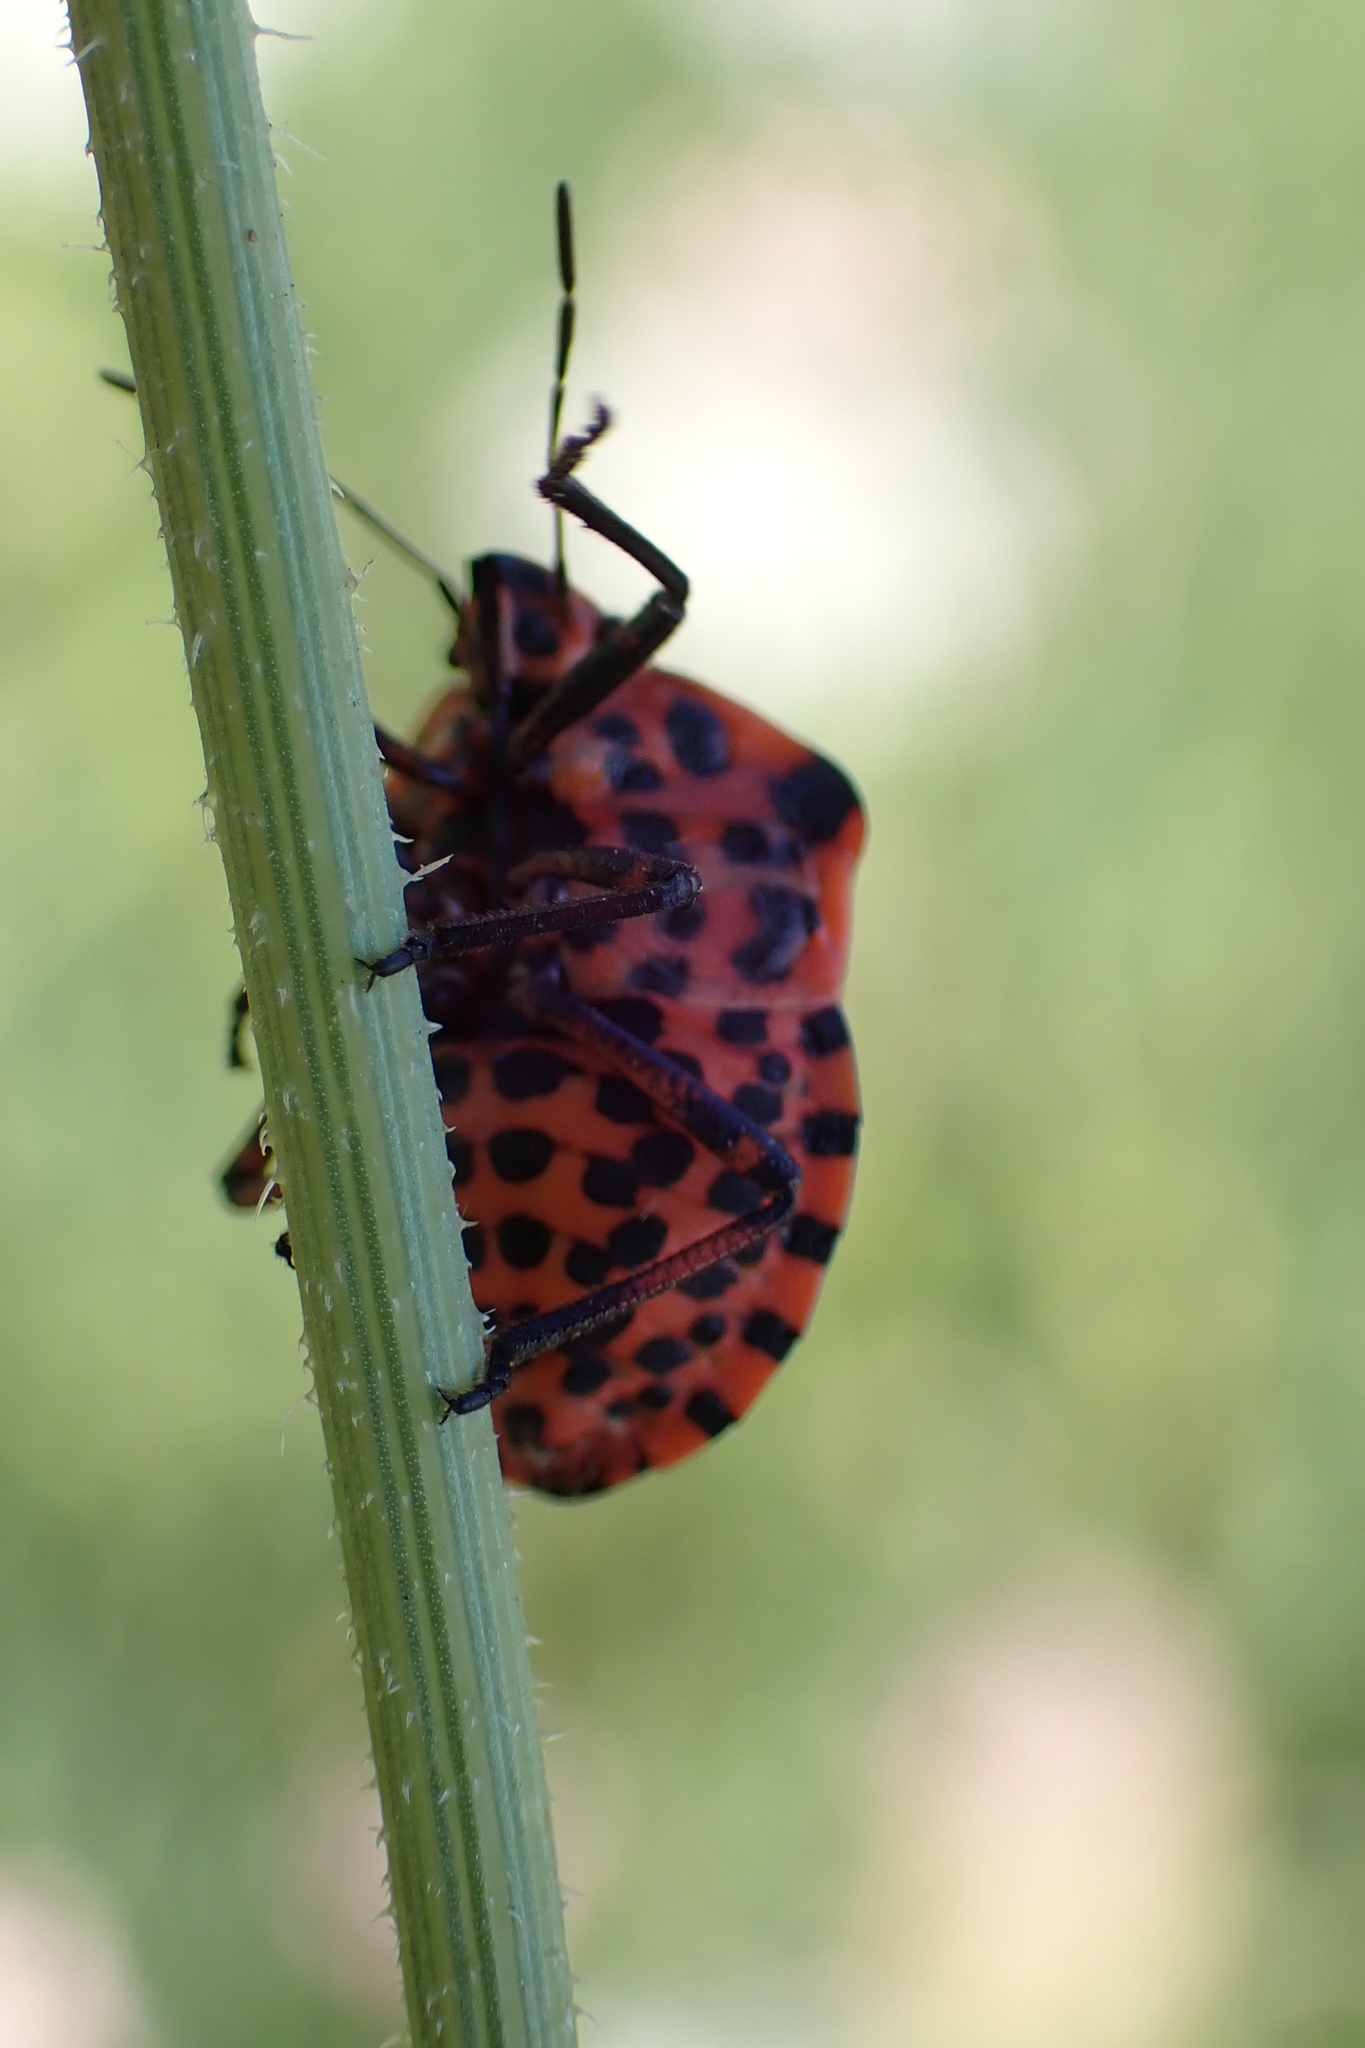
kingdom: Animalia
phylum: Arthropoda
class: Insecta
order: Hemiptera
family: Pentatomidae
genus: Graphosoma
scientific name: Graphosoma italicum
